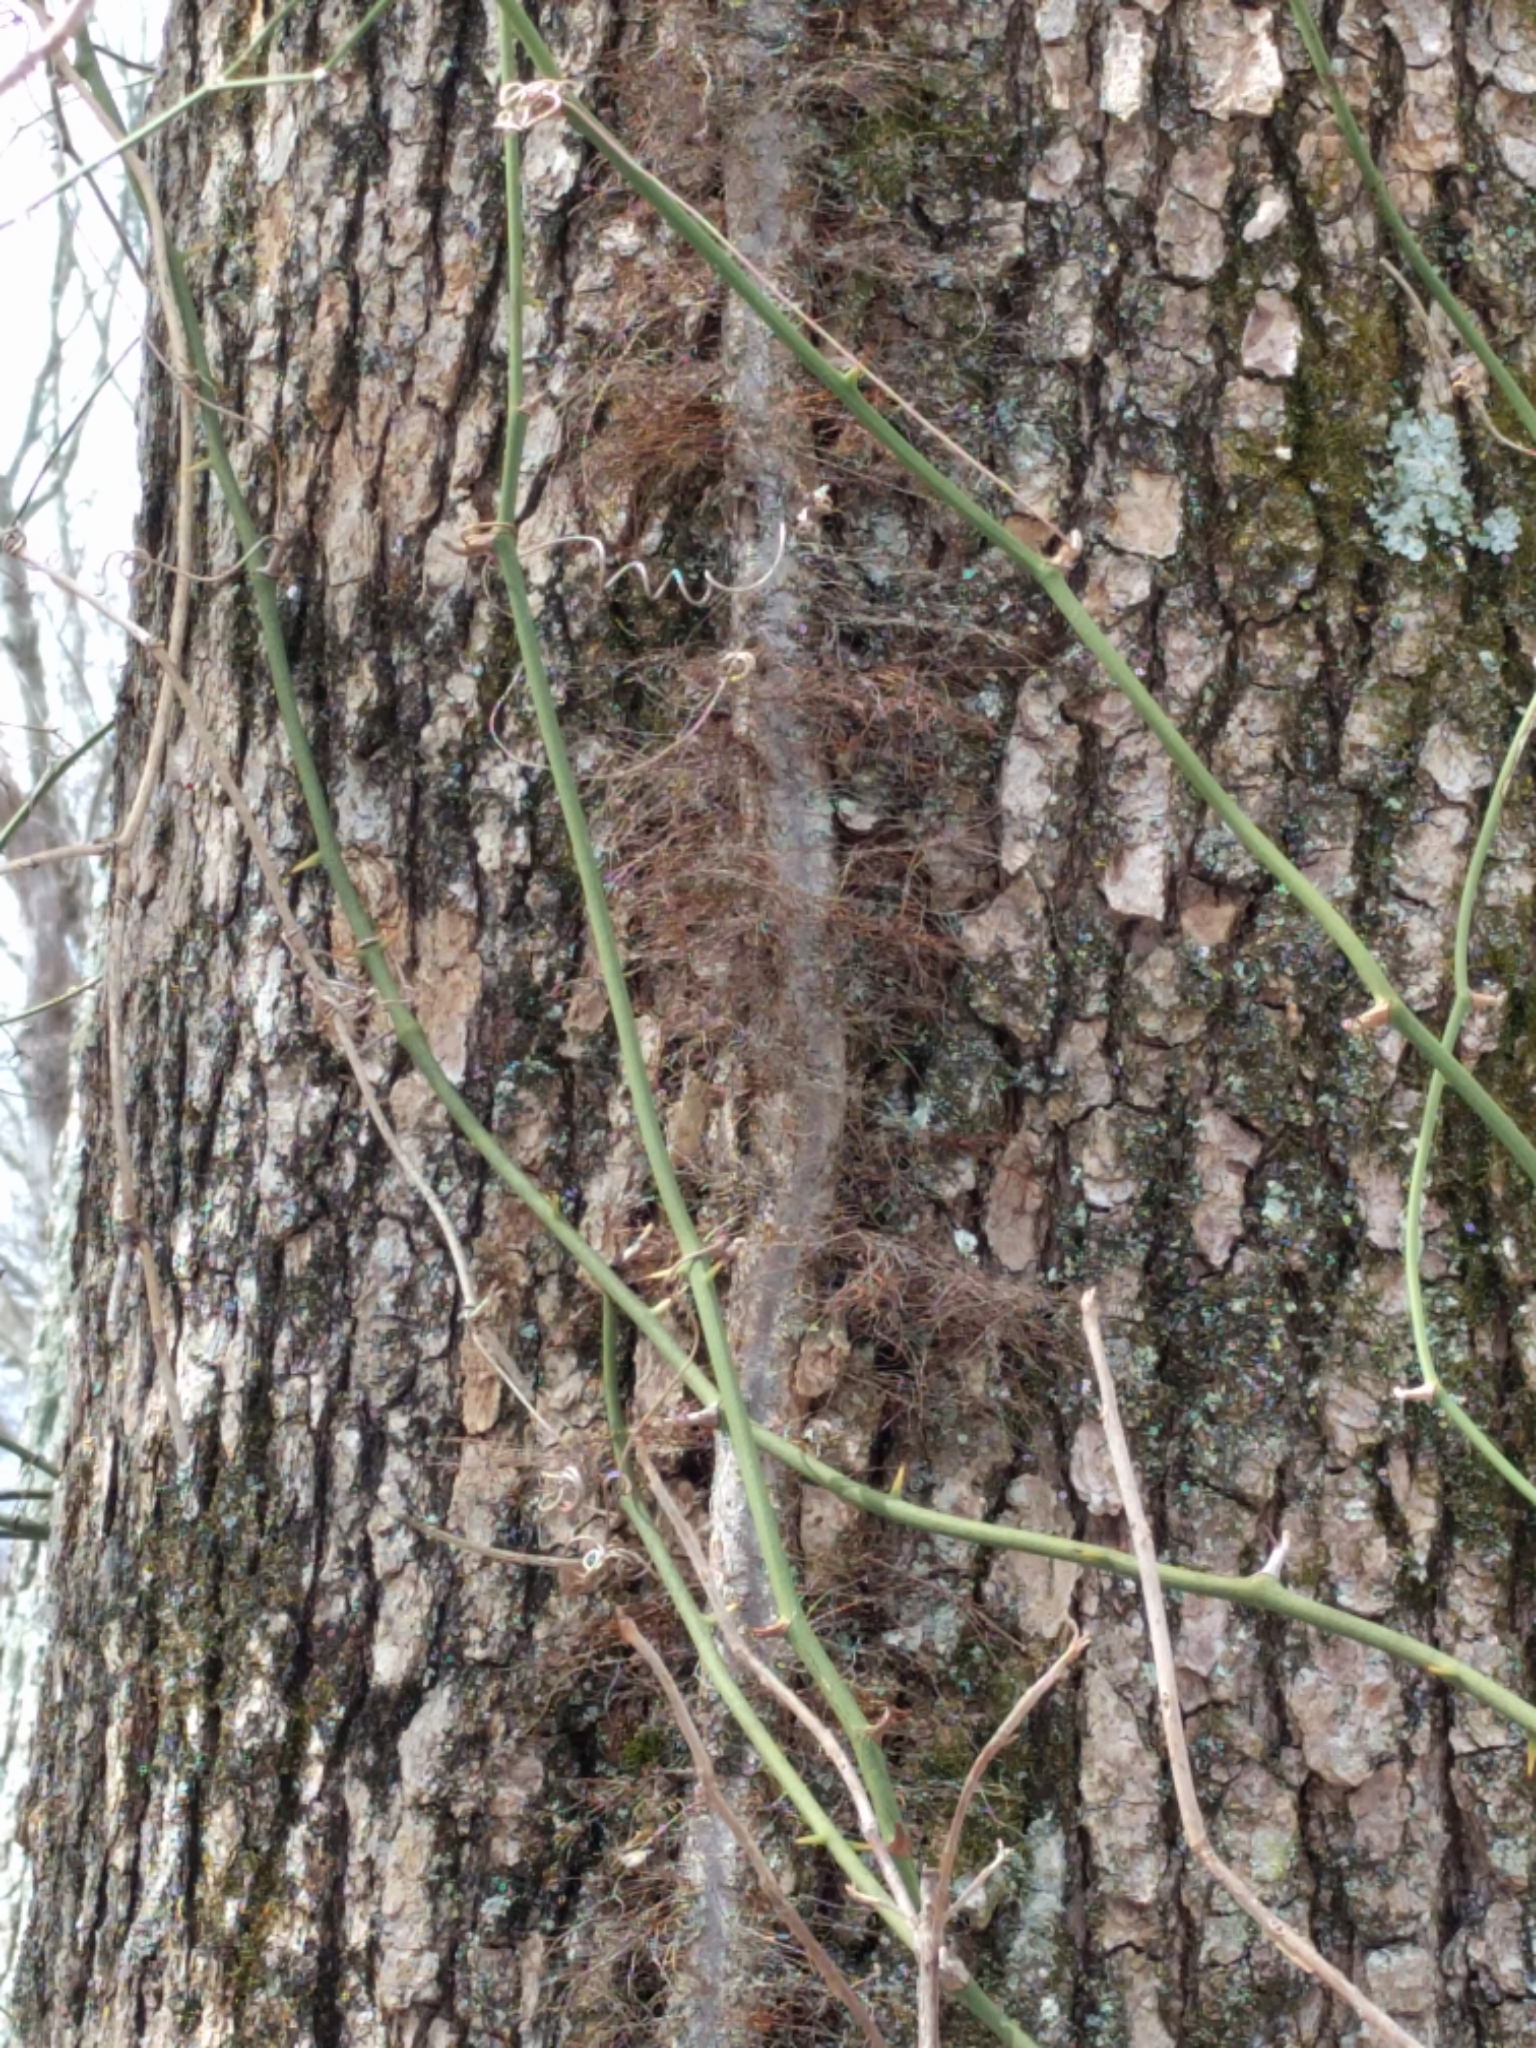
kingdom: Plantae
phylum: Tracheophyta
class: Magnoliopsida
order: Sapindales
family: Anacardiaceae
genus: Toxicodendron
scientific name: Toxicodendron radicans
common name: Poison ivy
